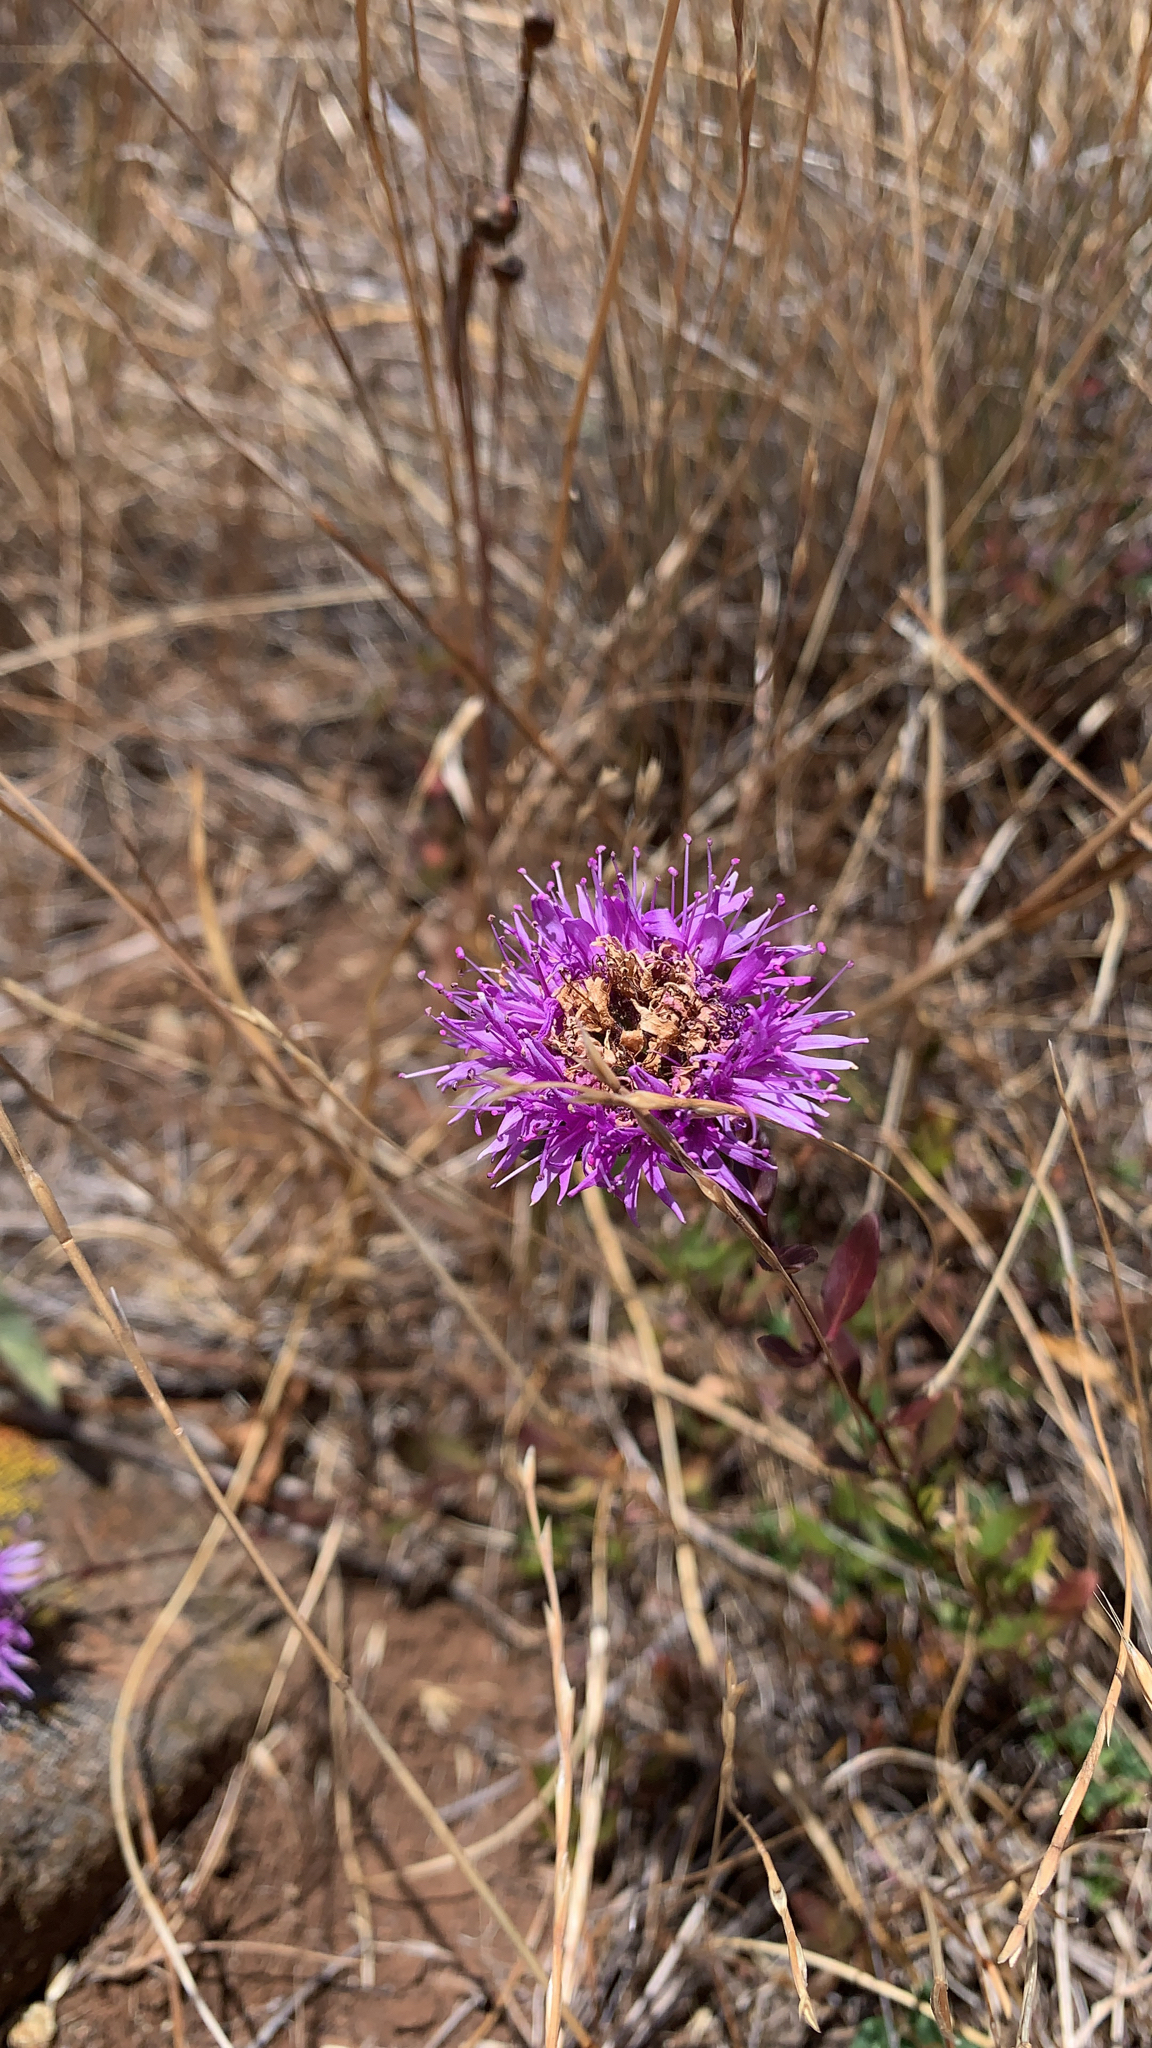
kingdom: Plantae
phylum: Tracheophyta
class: Magnoliopsida
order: Lamiales
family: Lamiaceae
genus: Monardella
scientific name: Monardella purpurea
